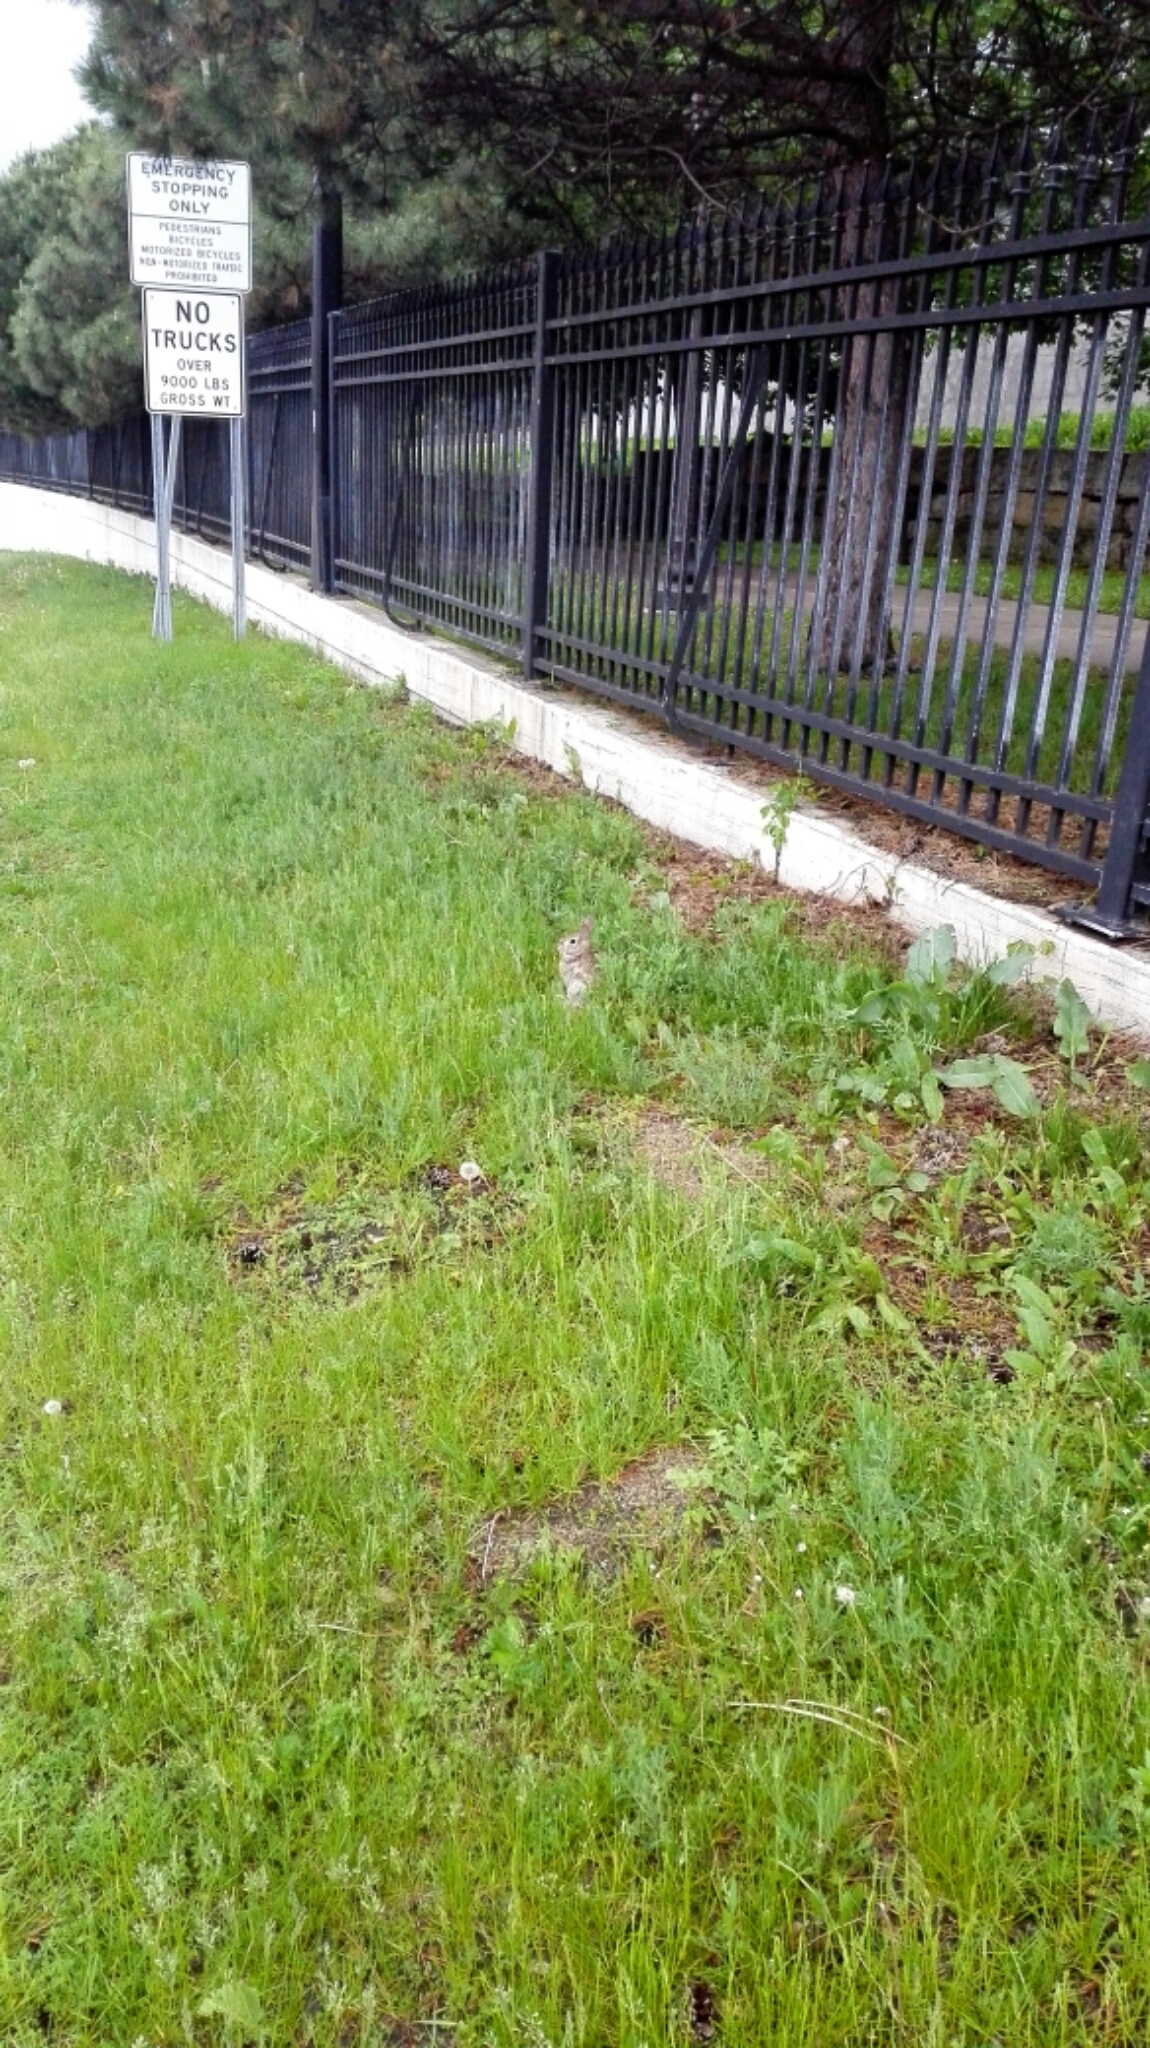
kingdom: Animalia
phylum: Chordata
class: Mammalia
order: Lagomorpha
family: Leporidae
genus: Sylvilagus
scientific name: Sylvilagus floridanus
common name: Eastern cottontail
